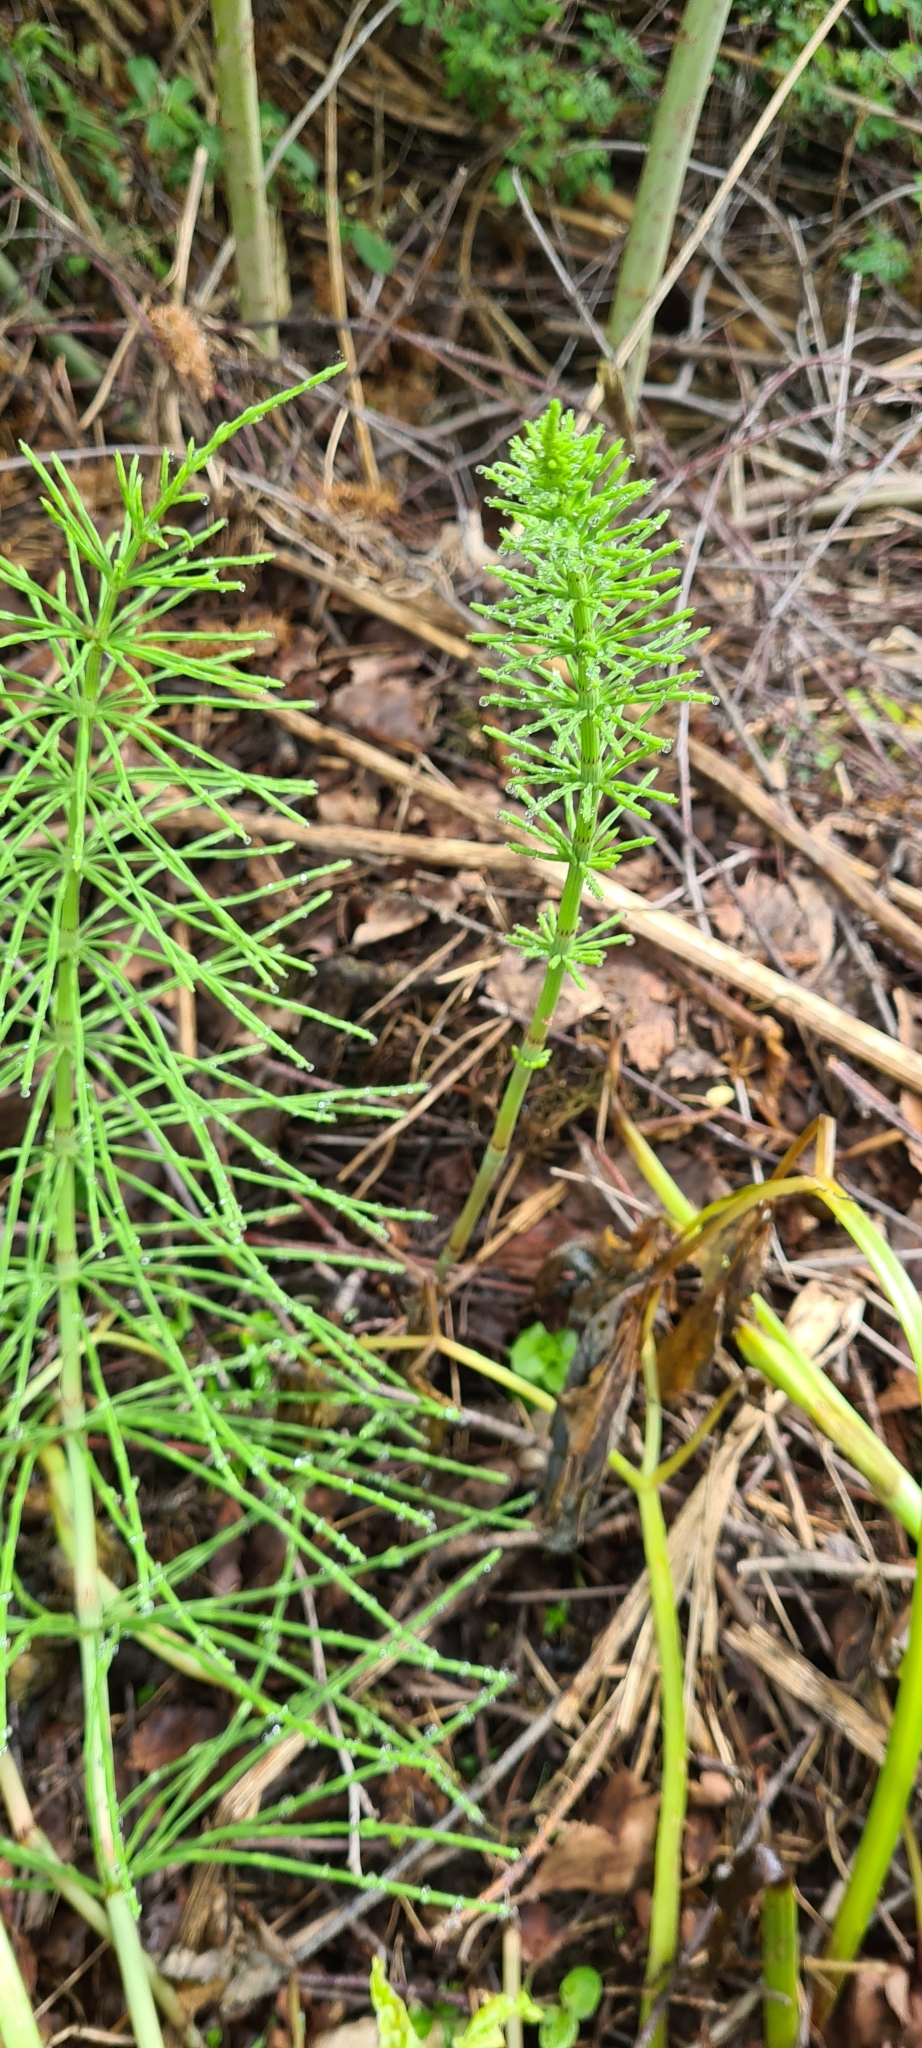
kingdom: Plantae
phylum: Tracheophyta
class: Polypodiopsida
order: Equisetales
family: Equisetaceae
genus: Equisetum
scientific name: Equisetum arvense
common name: Field horsetail
